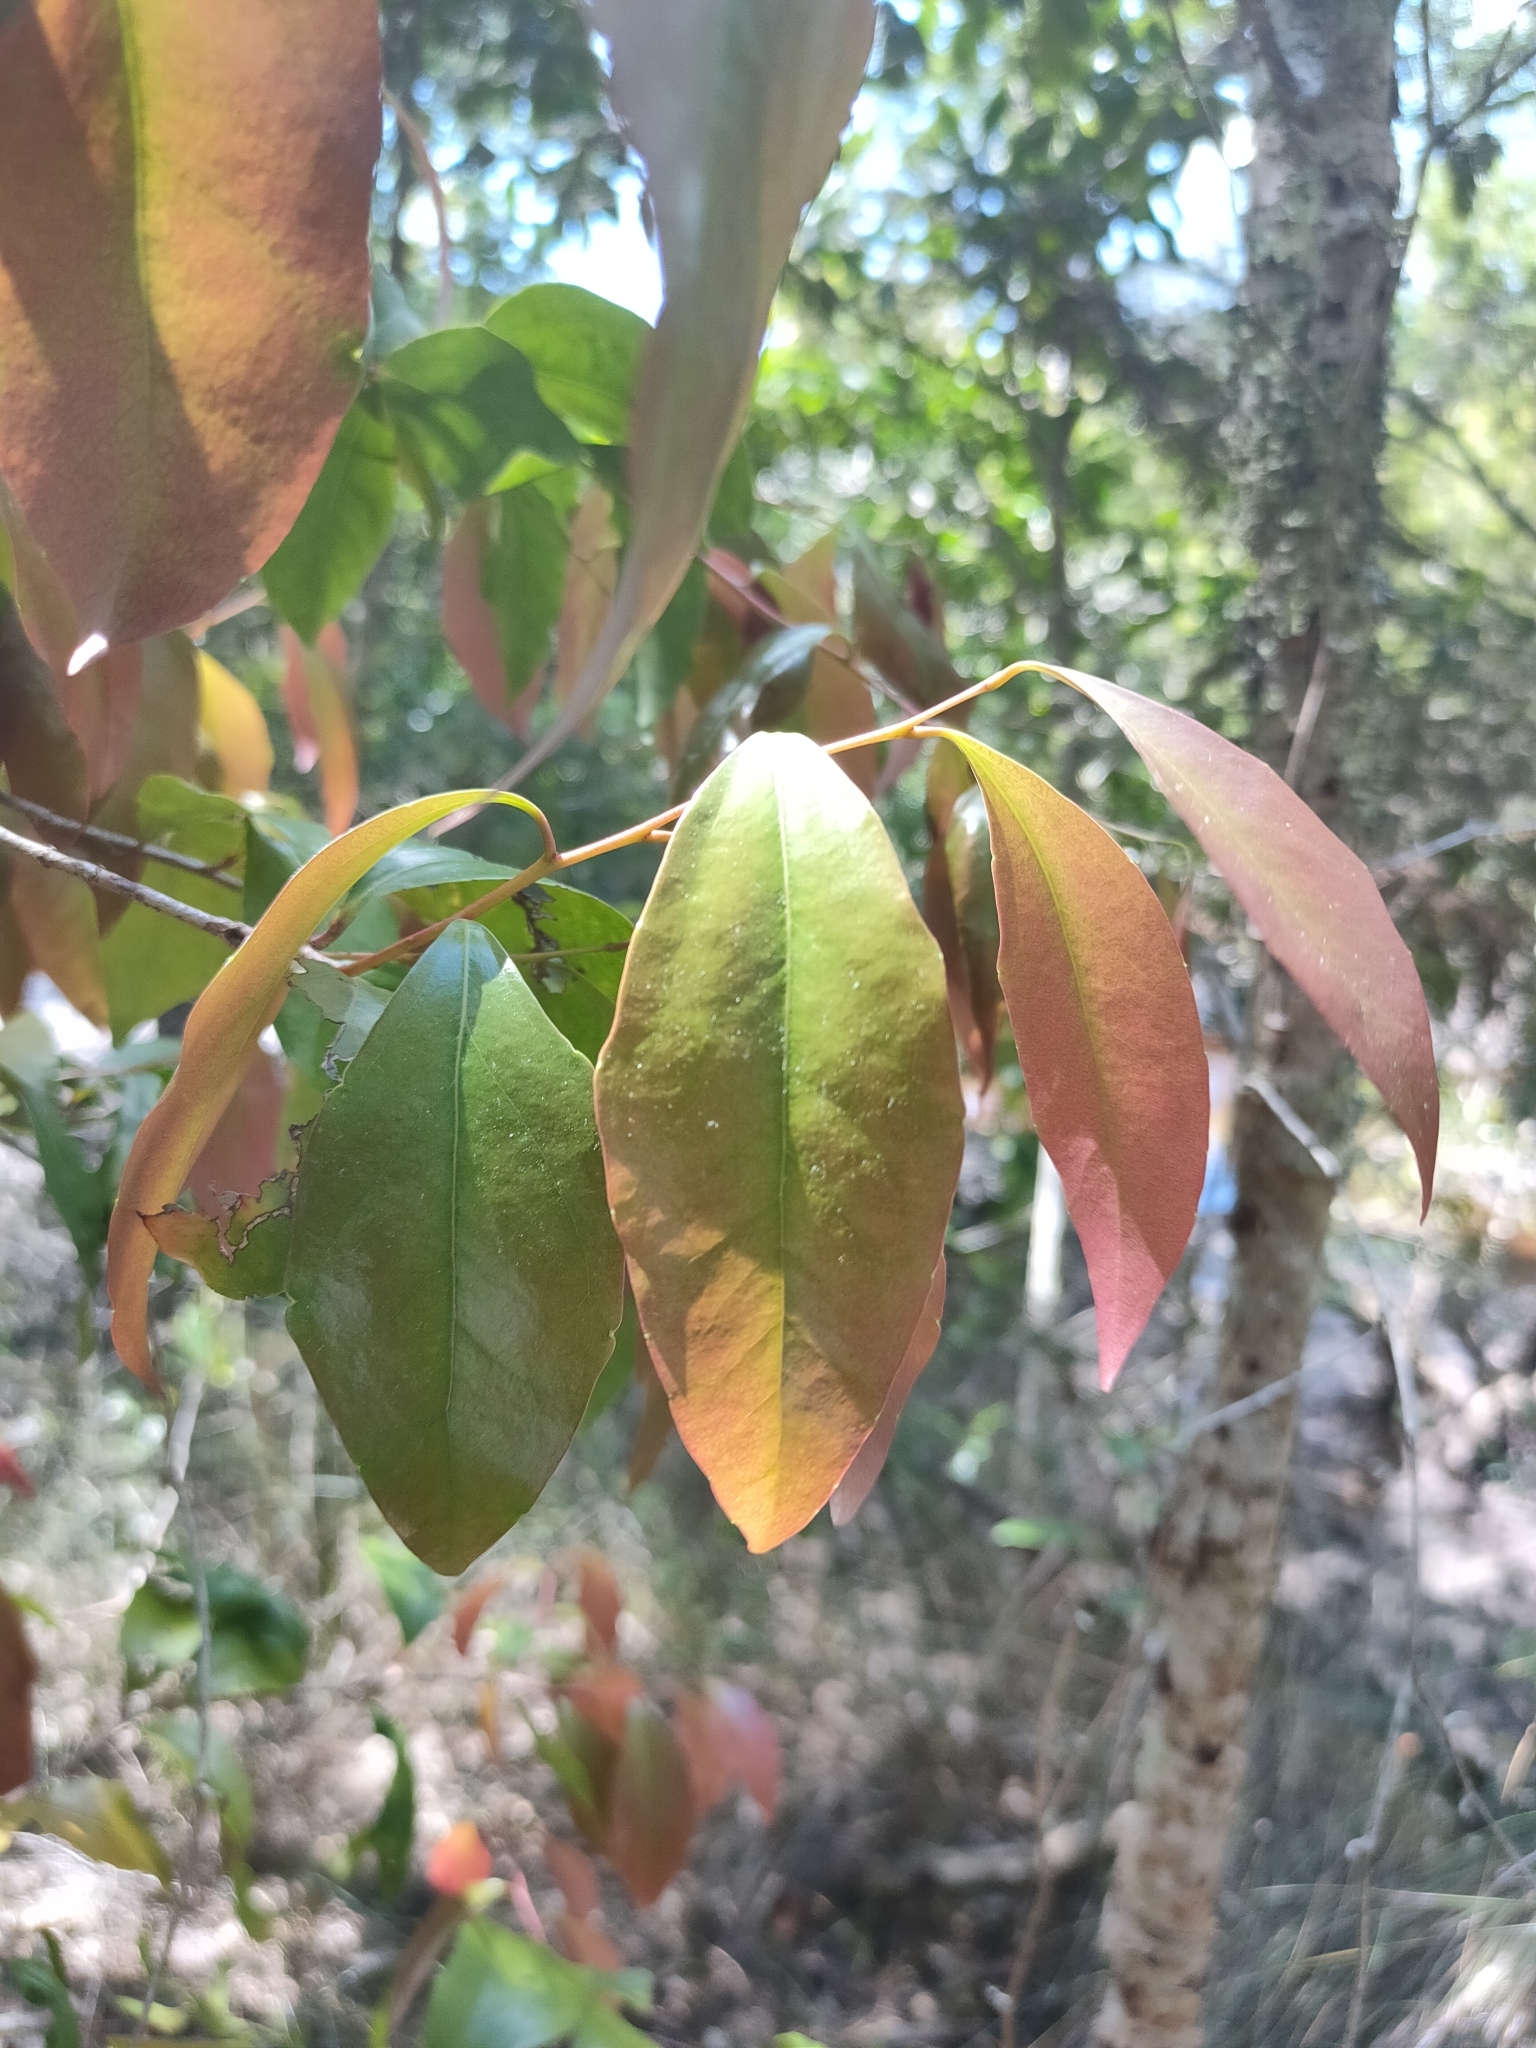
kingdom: Plantae
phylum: Tracheophyta
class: Magnoliopsida
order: Malpighiales
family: Salicaceae
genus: Scolopia
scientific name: Scolopia braunii
